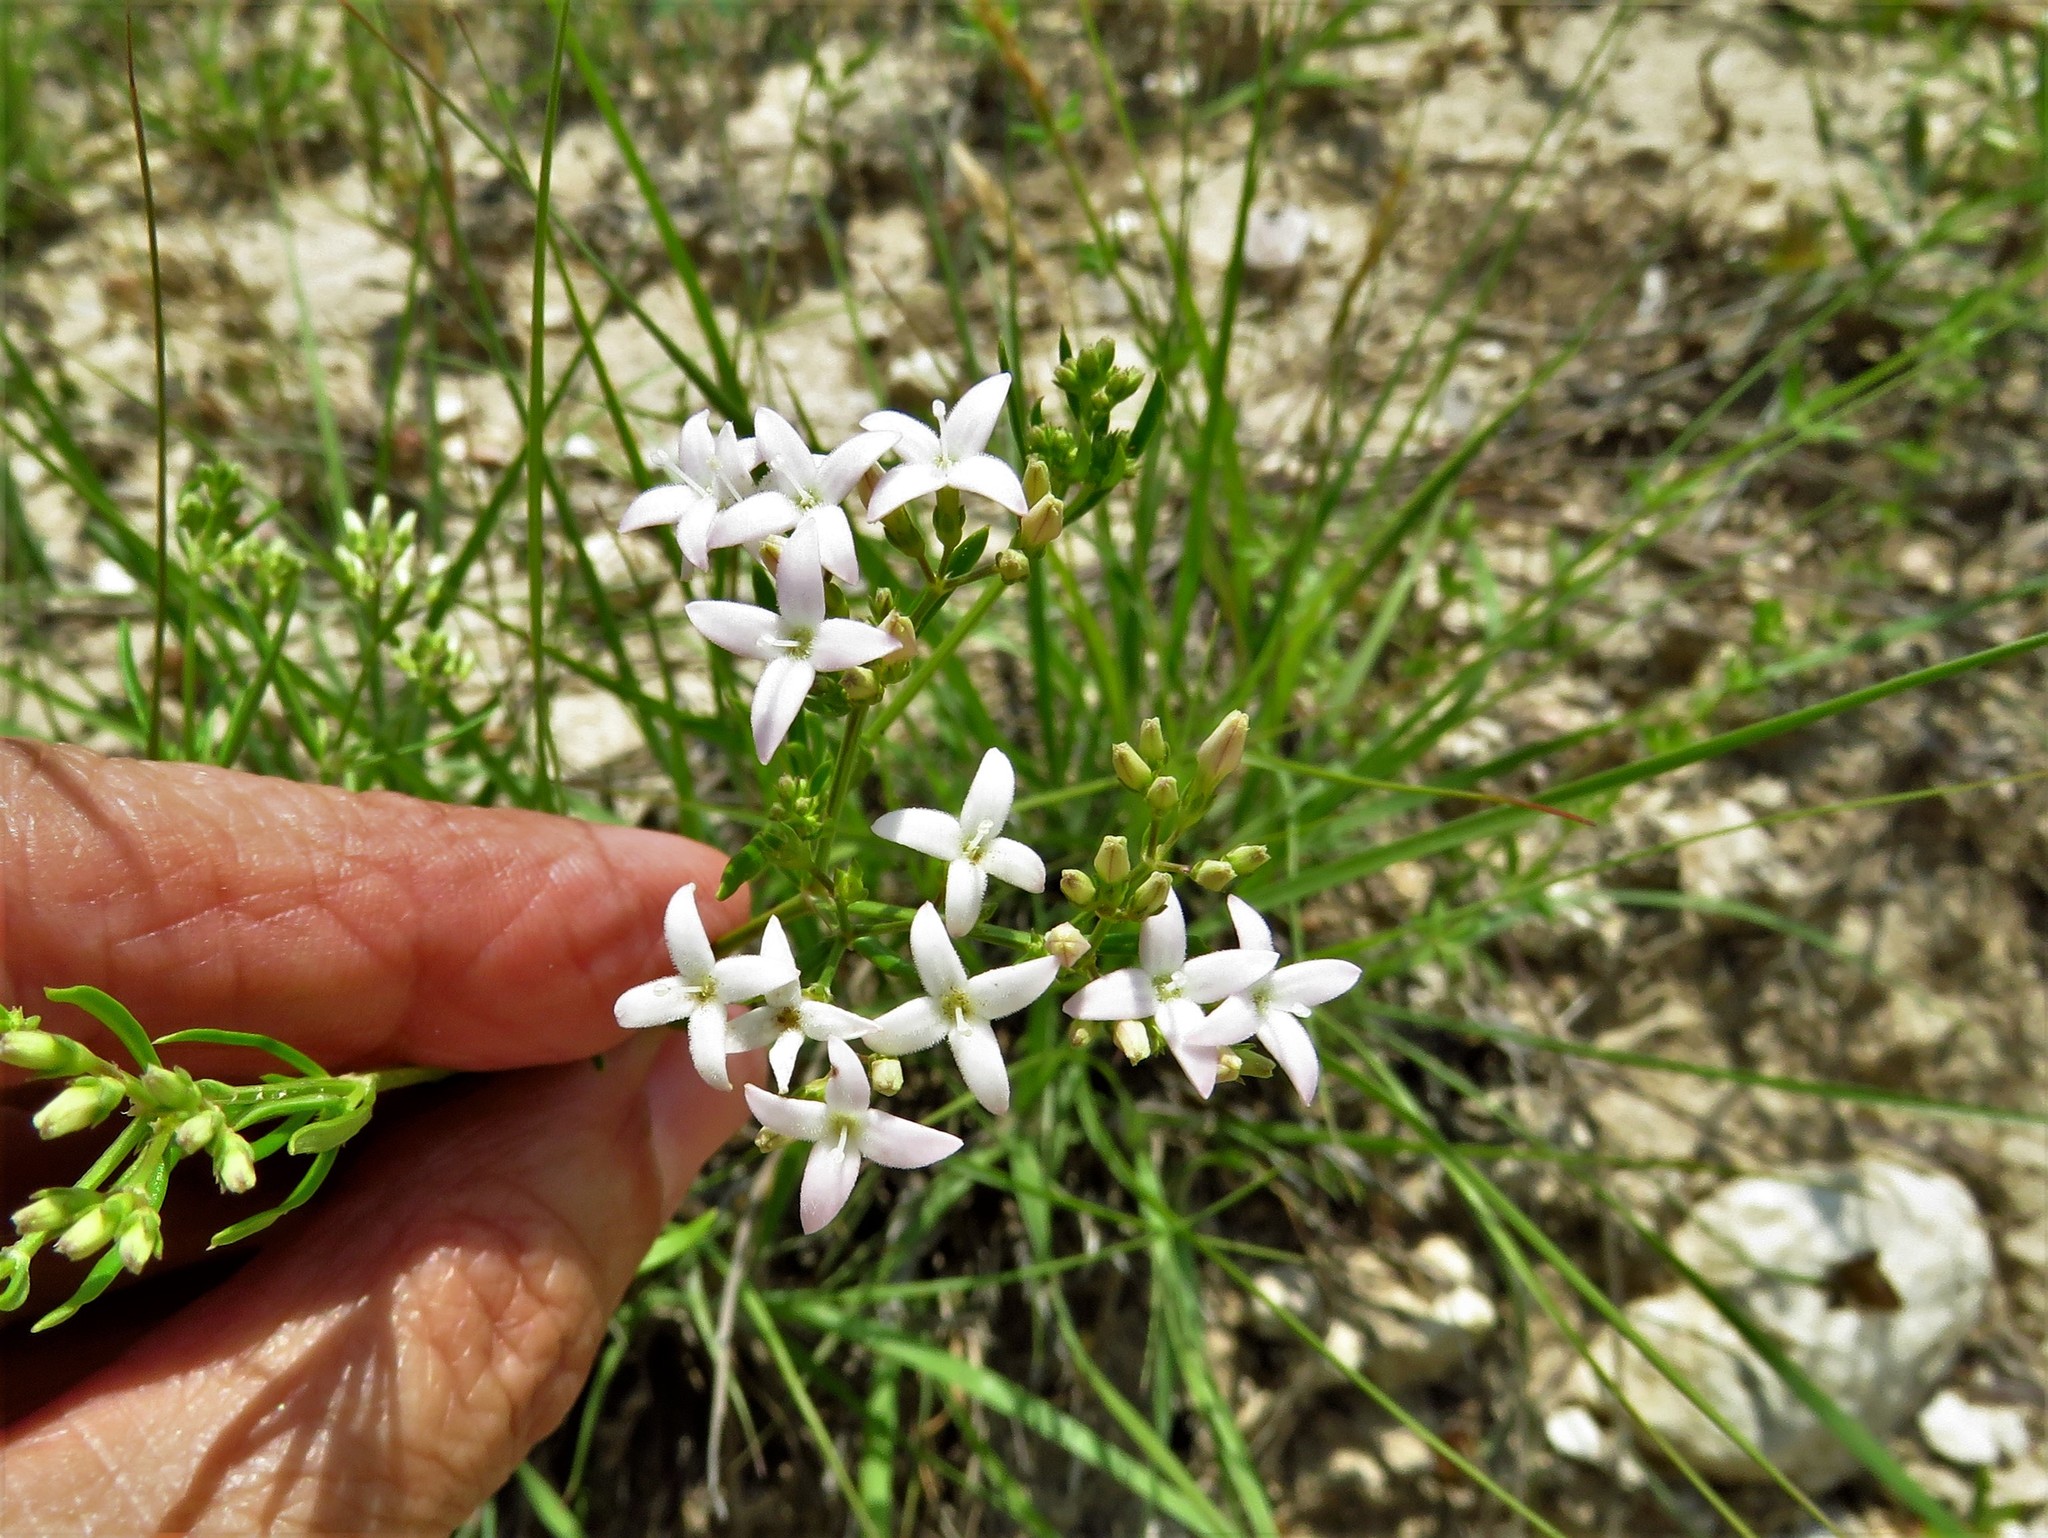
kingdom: Plantae
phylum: Tracheophyta
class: Magnoliopsida
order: Gentianales
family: Rubiaceae
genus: Stenaria
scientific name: Stenaria nigricans
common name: Diamondflowers
